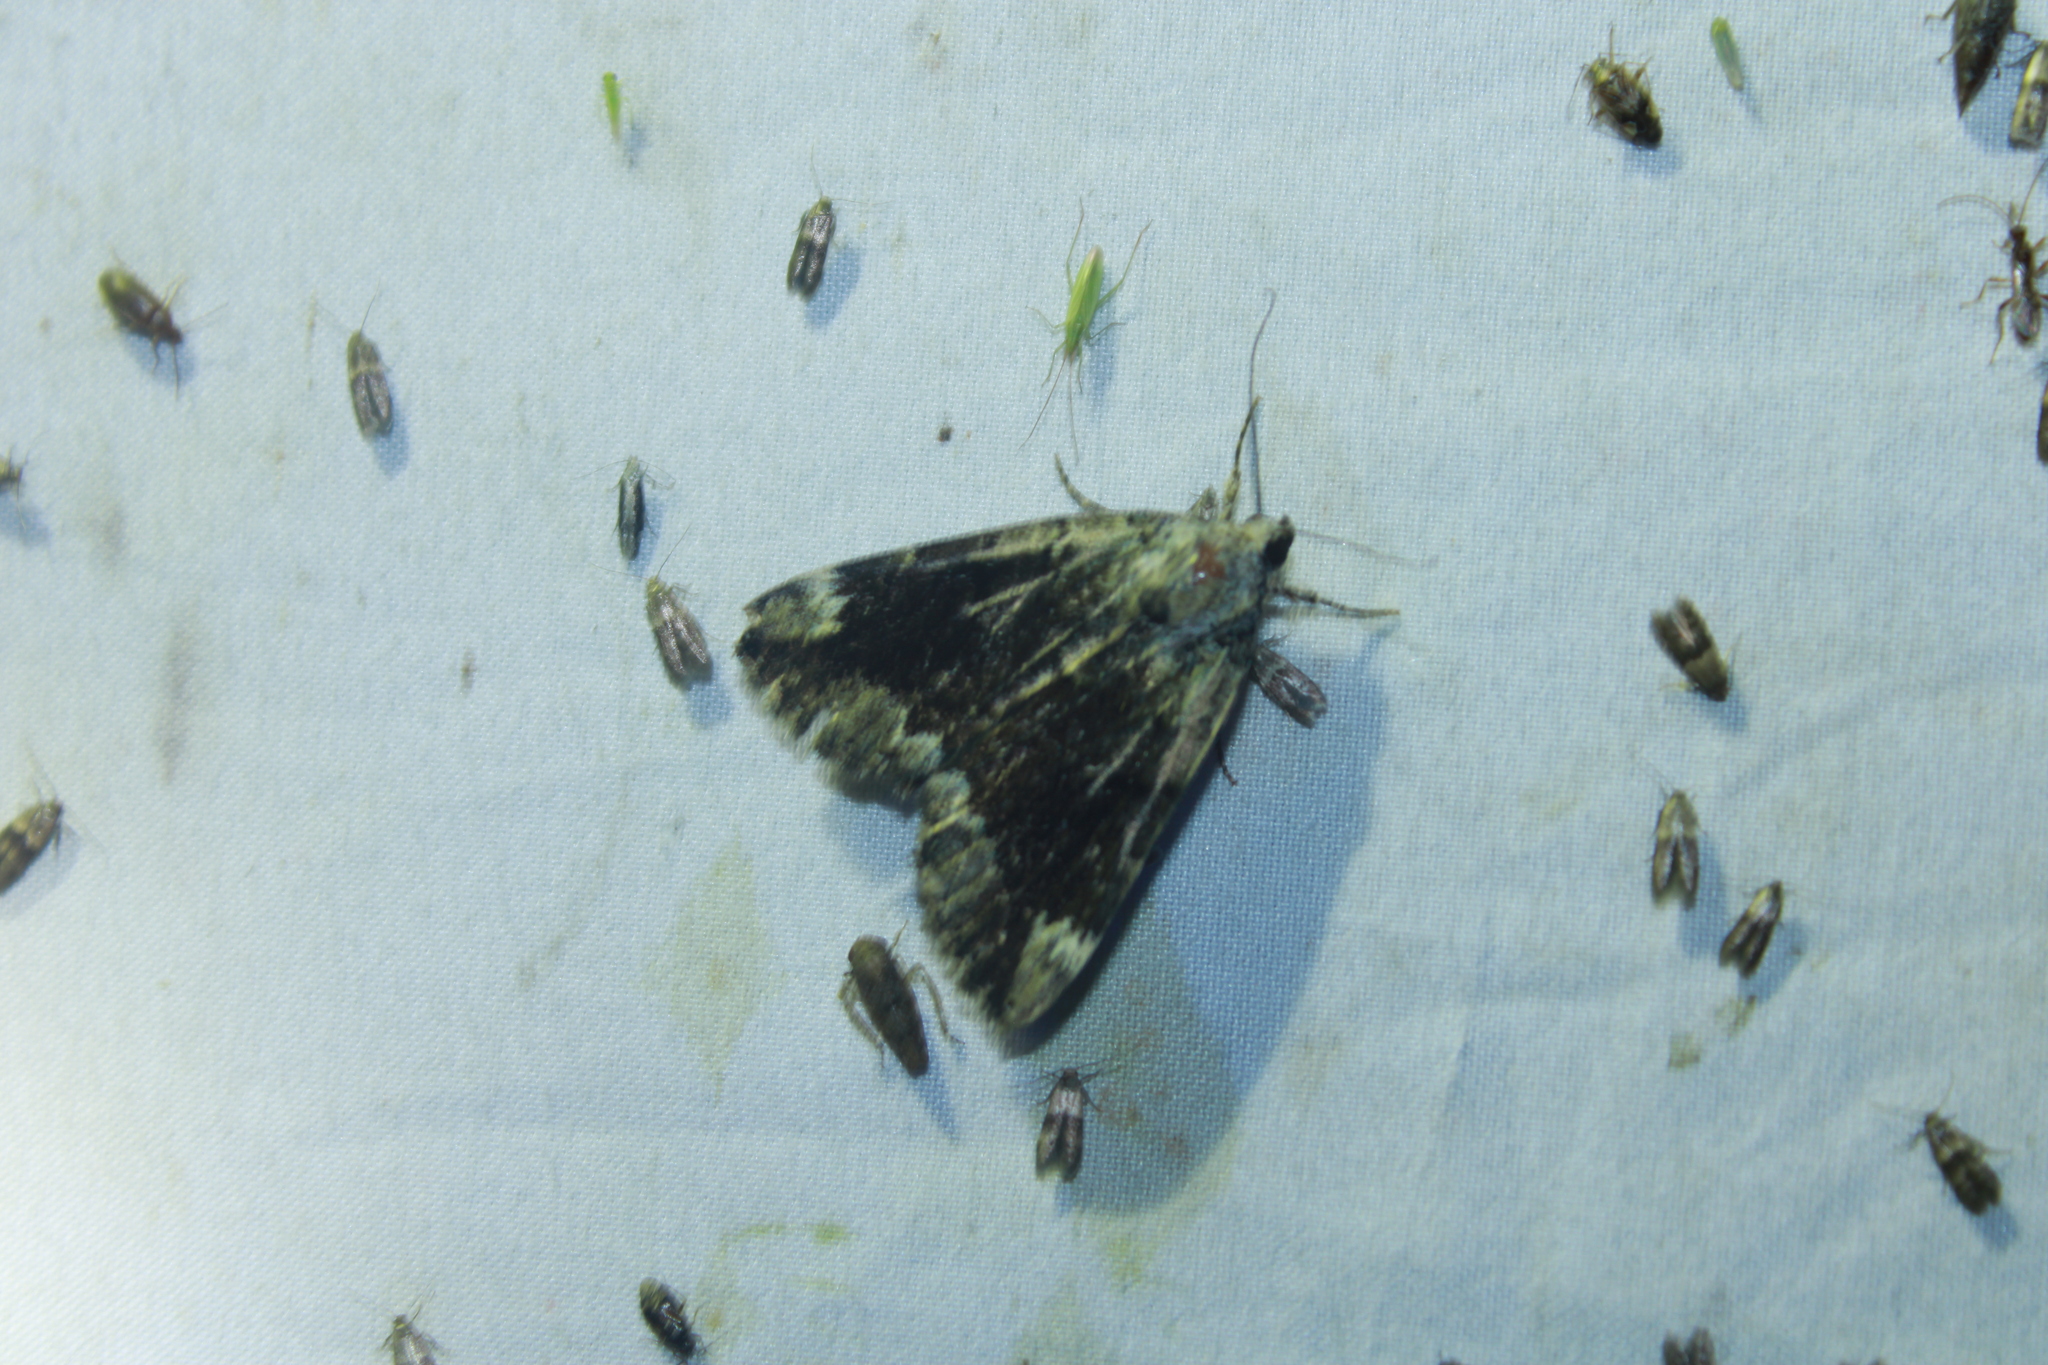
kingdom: Animalia
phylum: Arthropoda
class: Insecta
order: Lepidoptera
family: Erebidae
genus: Catocala
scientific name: Catocala micronympha
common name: Little nymph underwing
